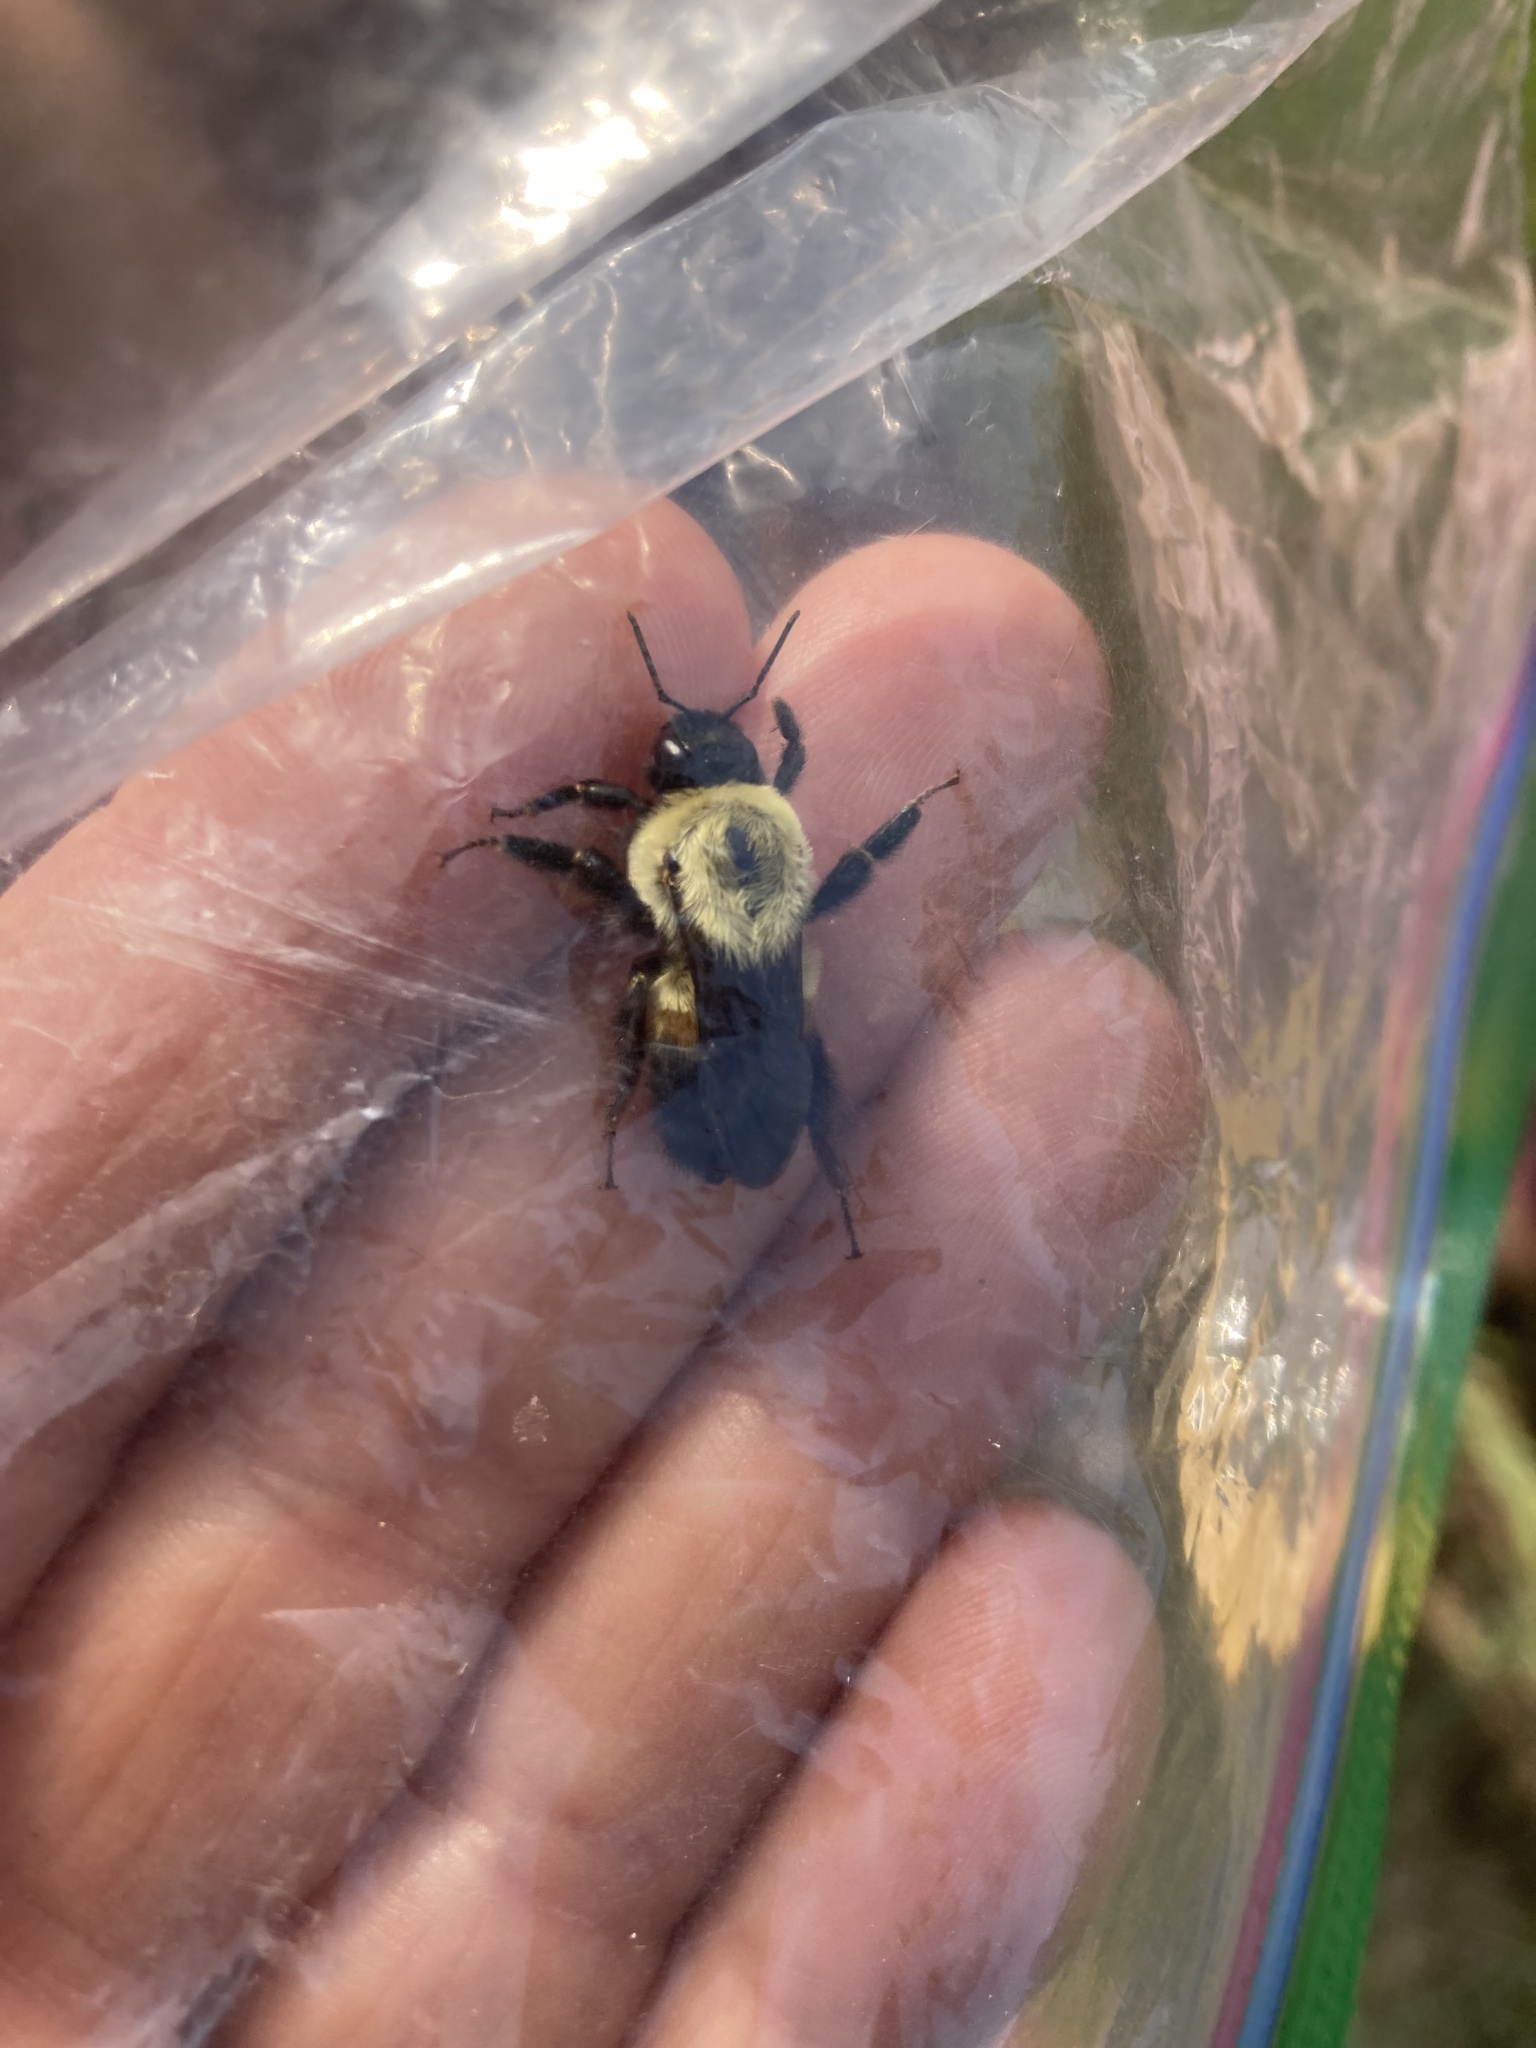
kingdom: Animalia
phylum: Arthropoda
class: Insecta
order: Hymenoptera
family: Apidae
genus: Bombus
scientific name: Bombus griseocollis
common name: Brown-belted bumble bee
